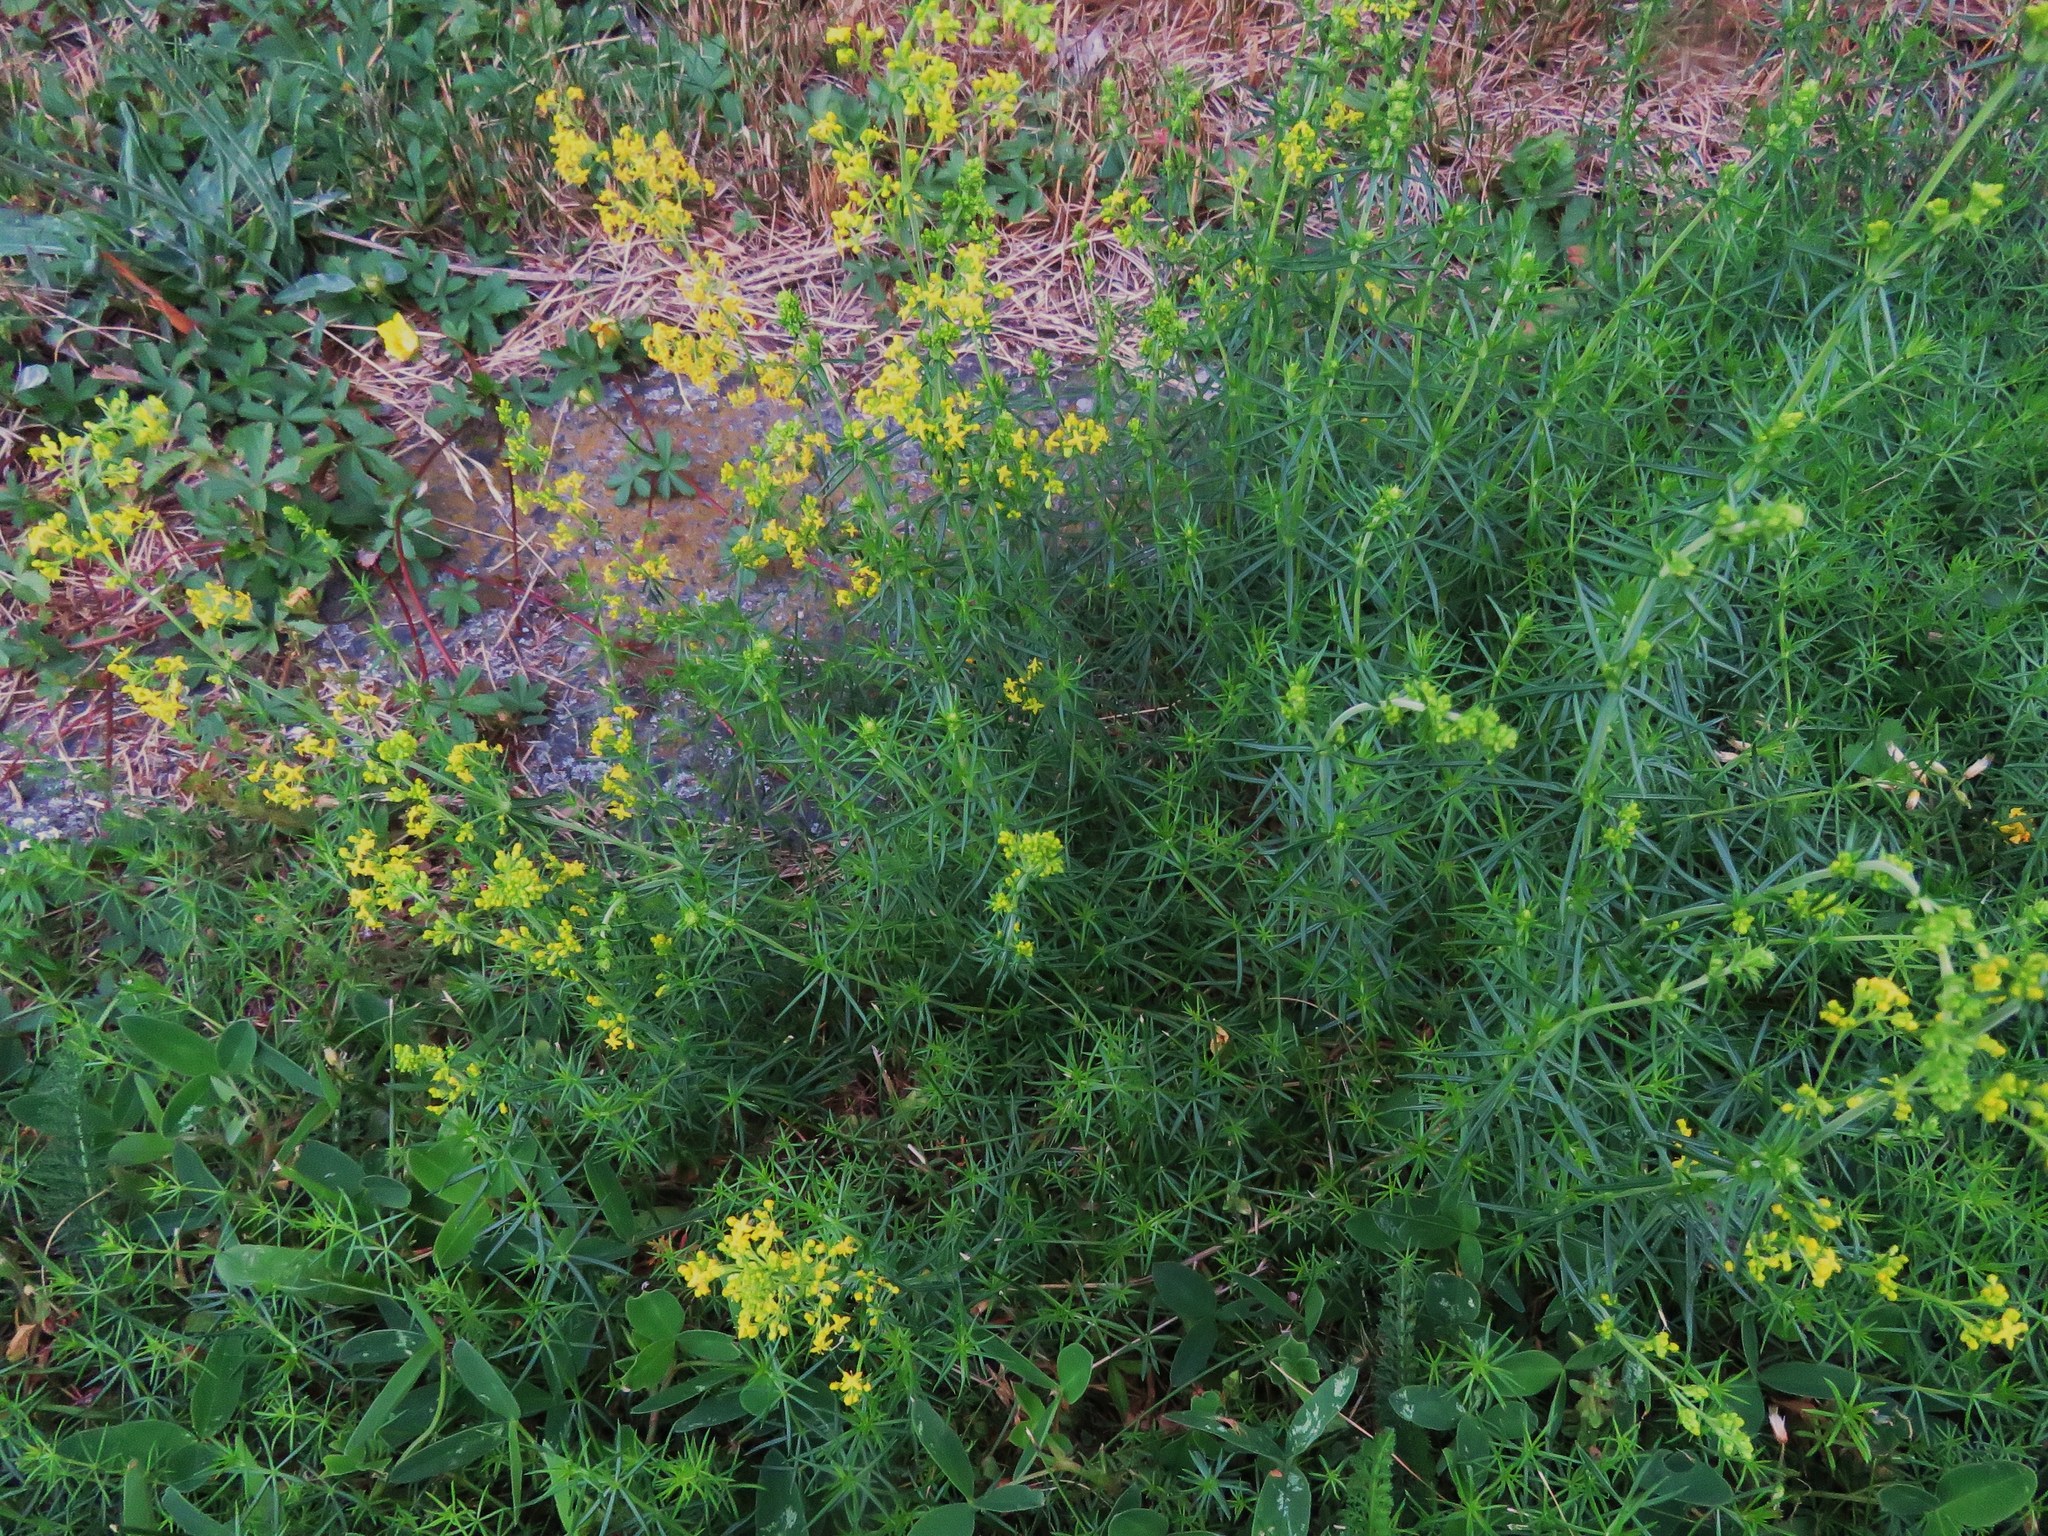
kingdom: Plantae
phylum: Tracheophyta
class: Magnoliopsida
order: Gentianales
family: Rubiaceae
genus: Galium
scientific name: Galium verum
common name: Lady's bedstraw
